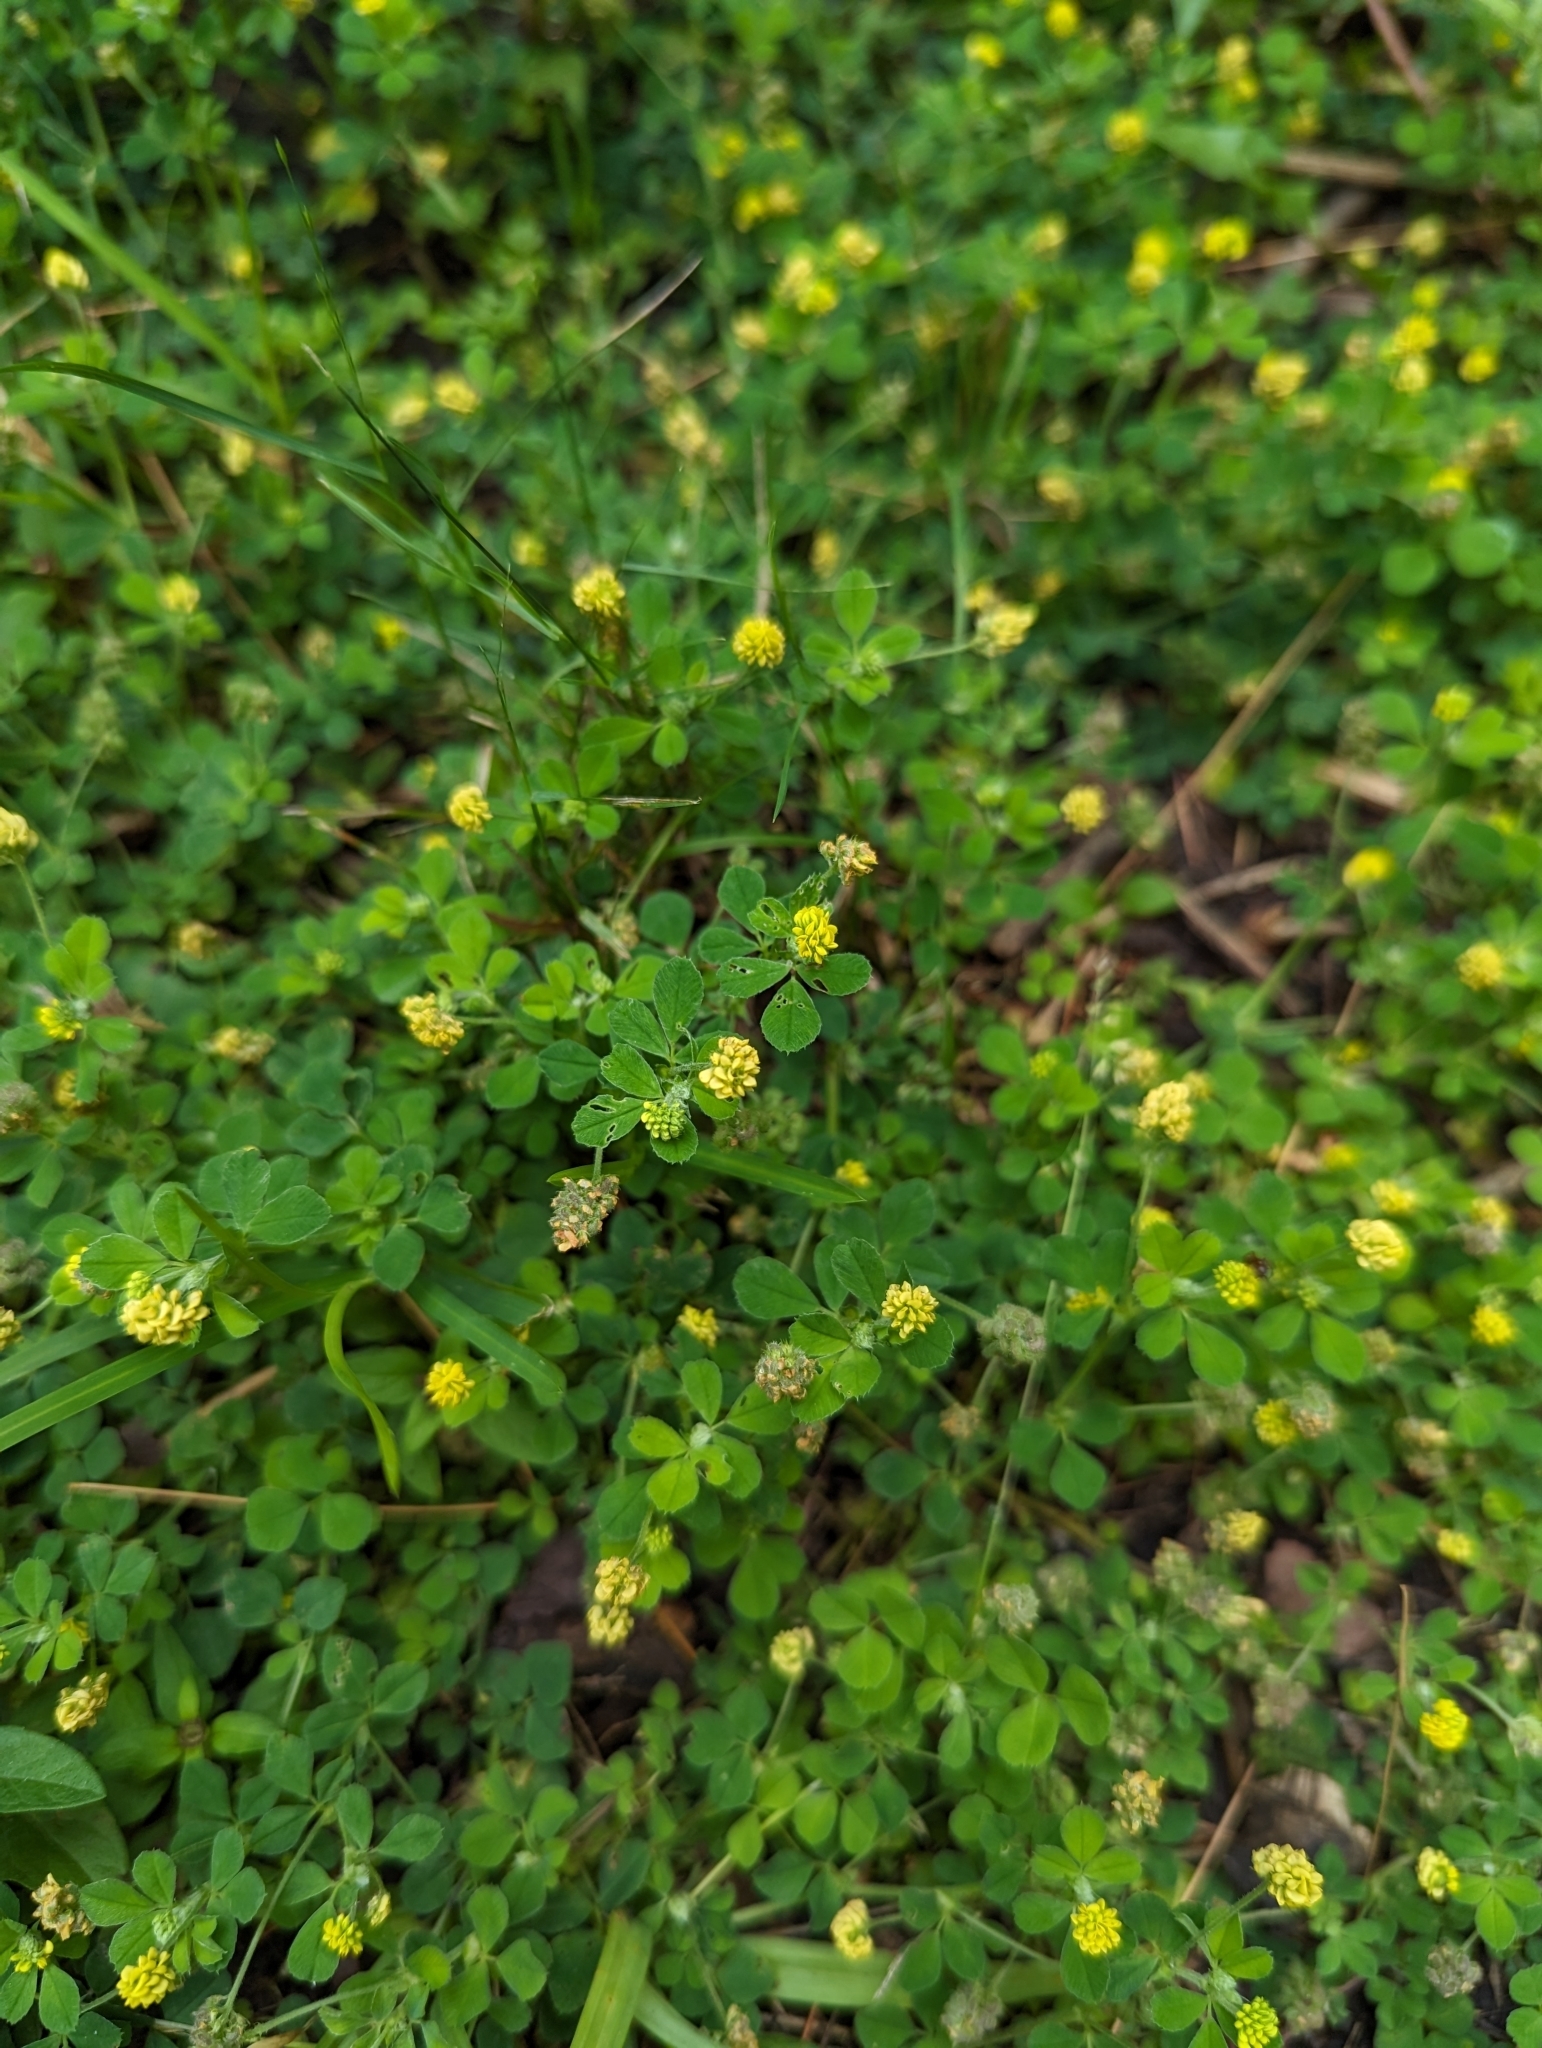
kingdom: Plantae
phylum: Tracheophyta
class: Magnoliopsida
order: Fabales
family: Fabaceae
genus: Medicago
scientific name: Medicago lupulina
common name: Black medick
